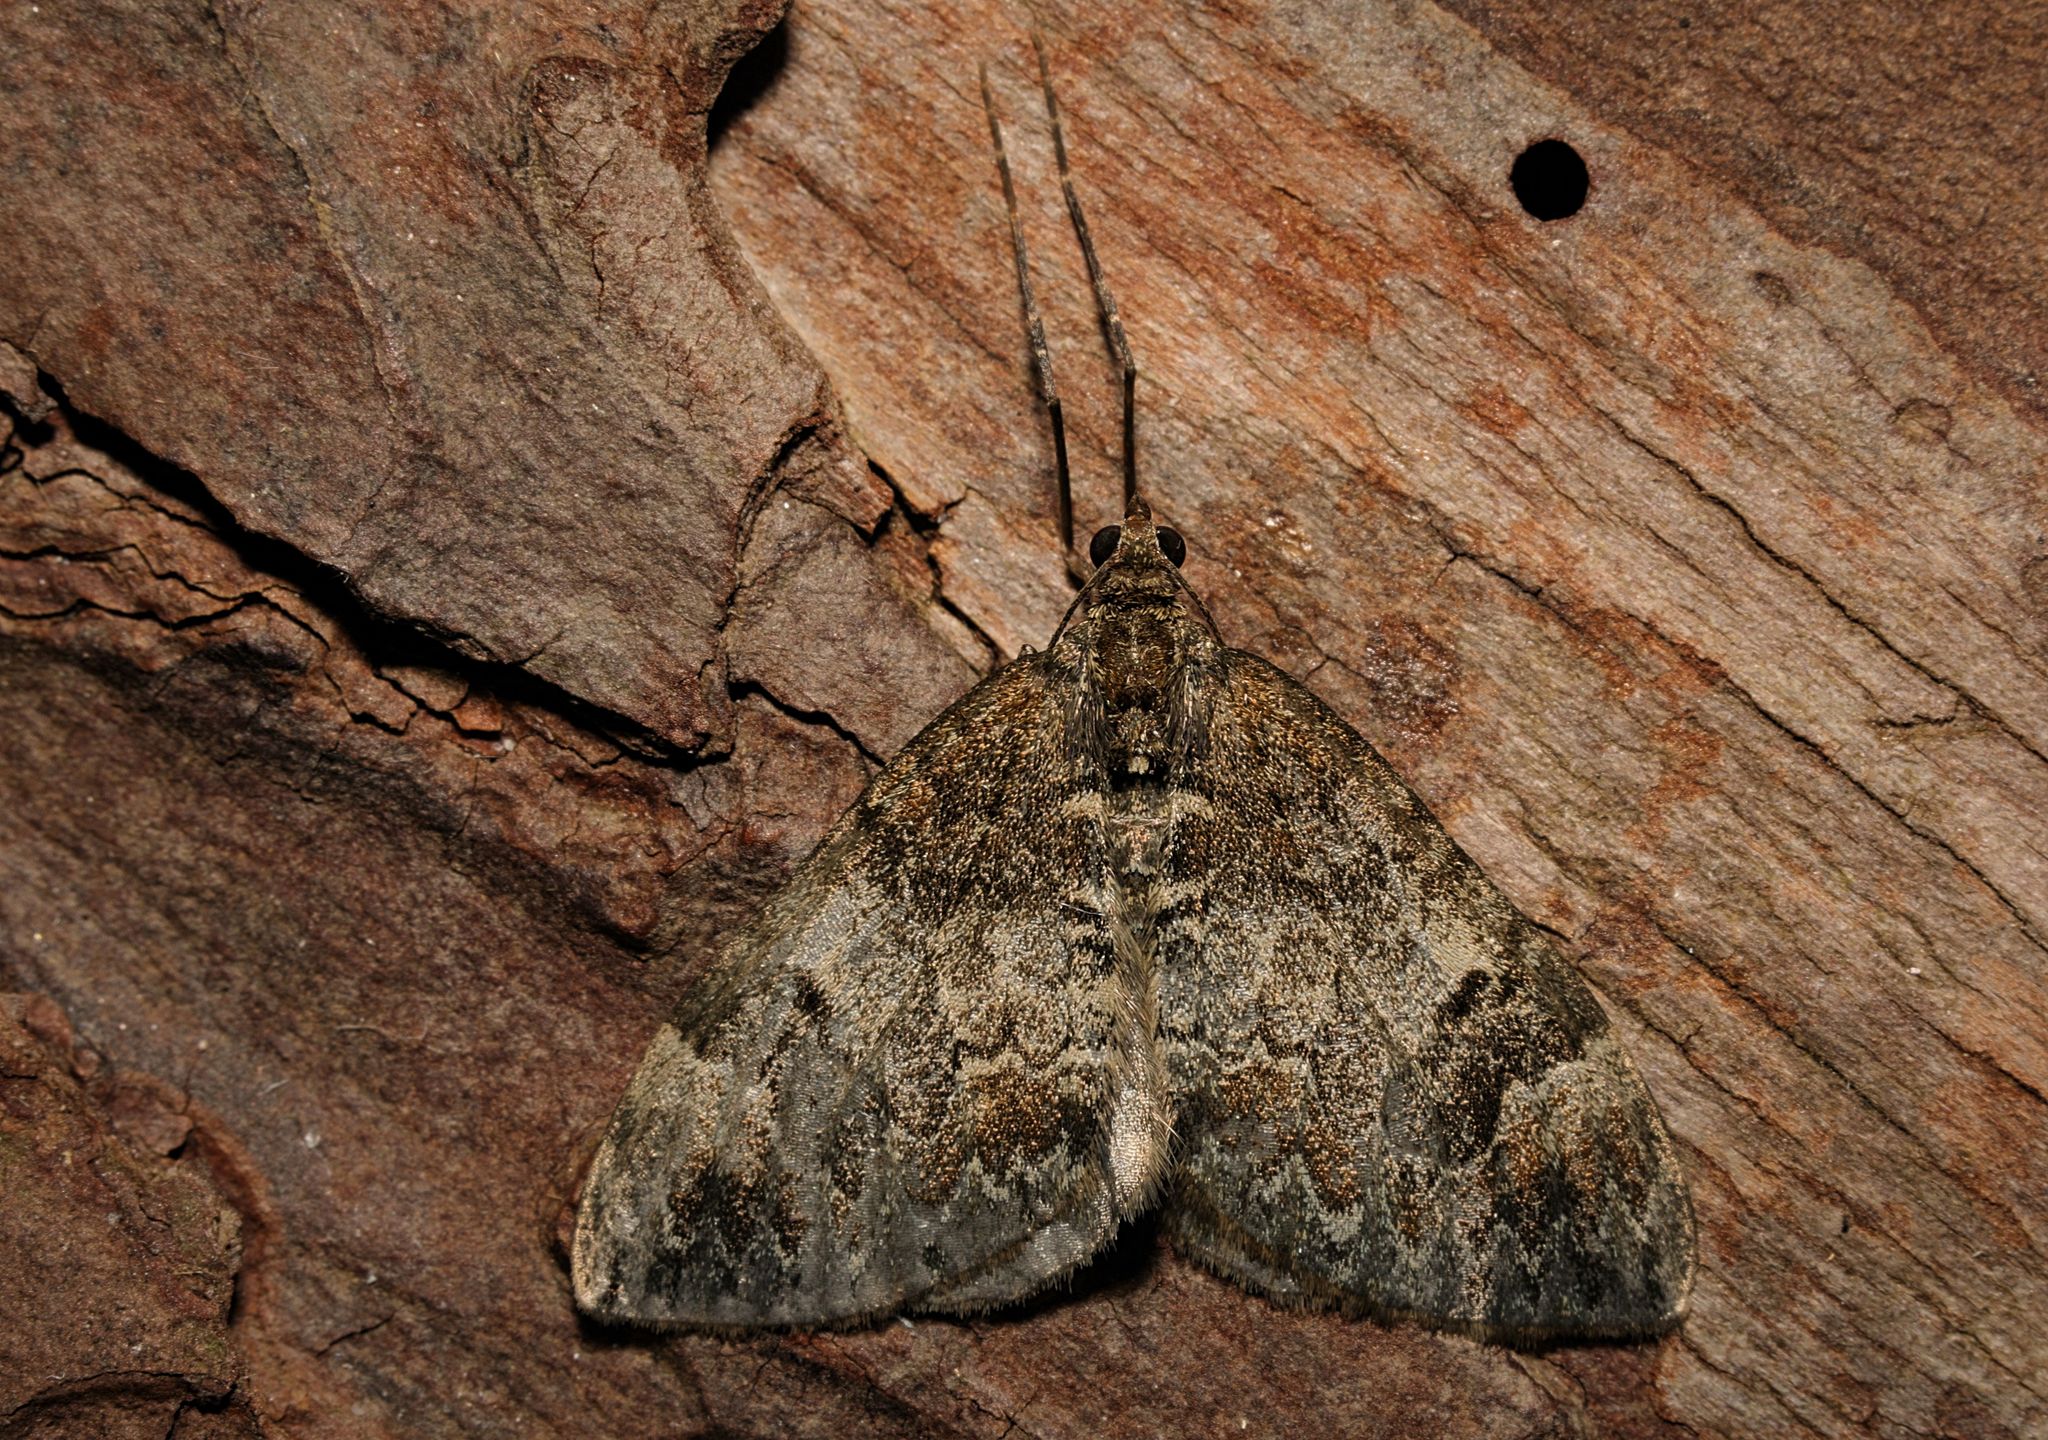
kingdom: Animalia
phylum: Arthropoda
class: Insecta
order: Lepidoptera
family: Geometridae
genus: Dysstroma
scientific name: Dysstroma truncata
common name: Common marbled carpet
